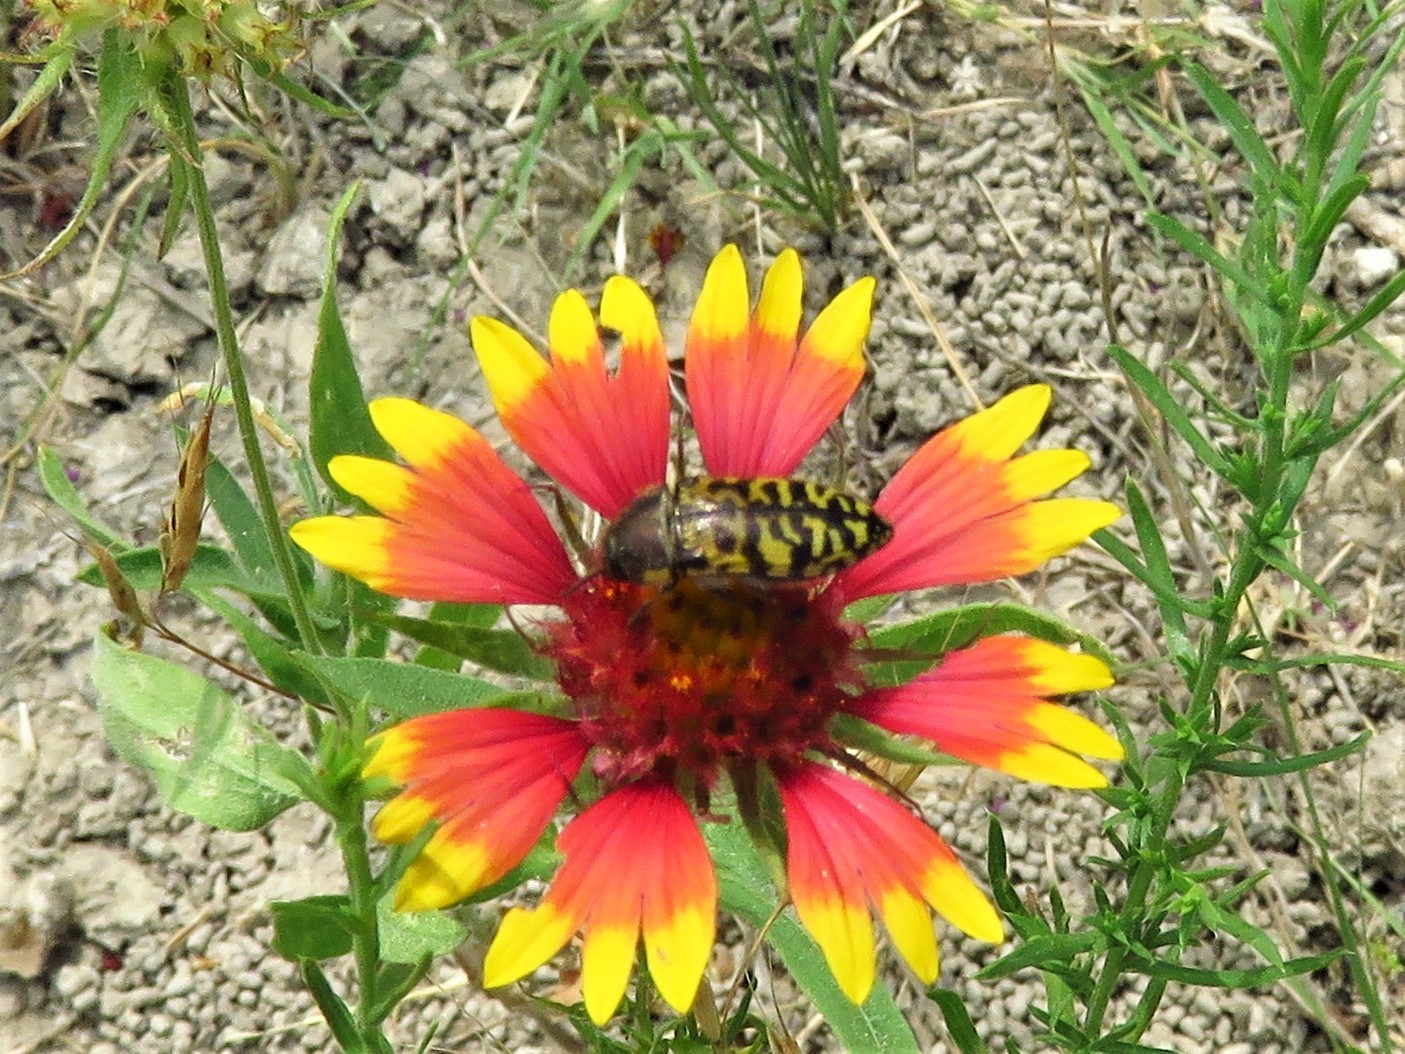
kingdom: Animalia
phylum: Arthropoda
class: Insecta
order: Coleoptera
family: Buprestidae
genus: Acmaeodera
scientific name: Acmaeodera mixta
